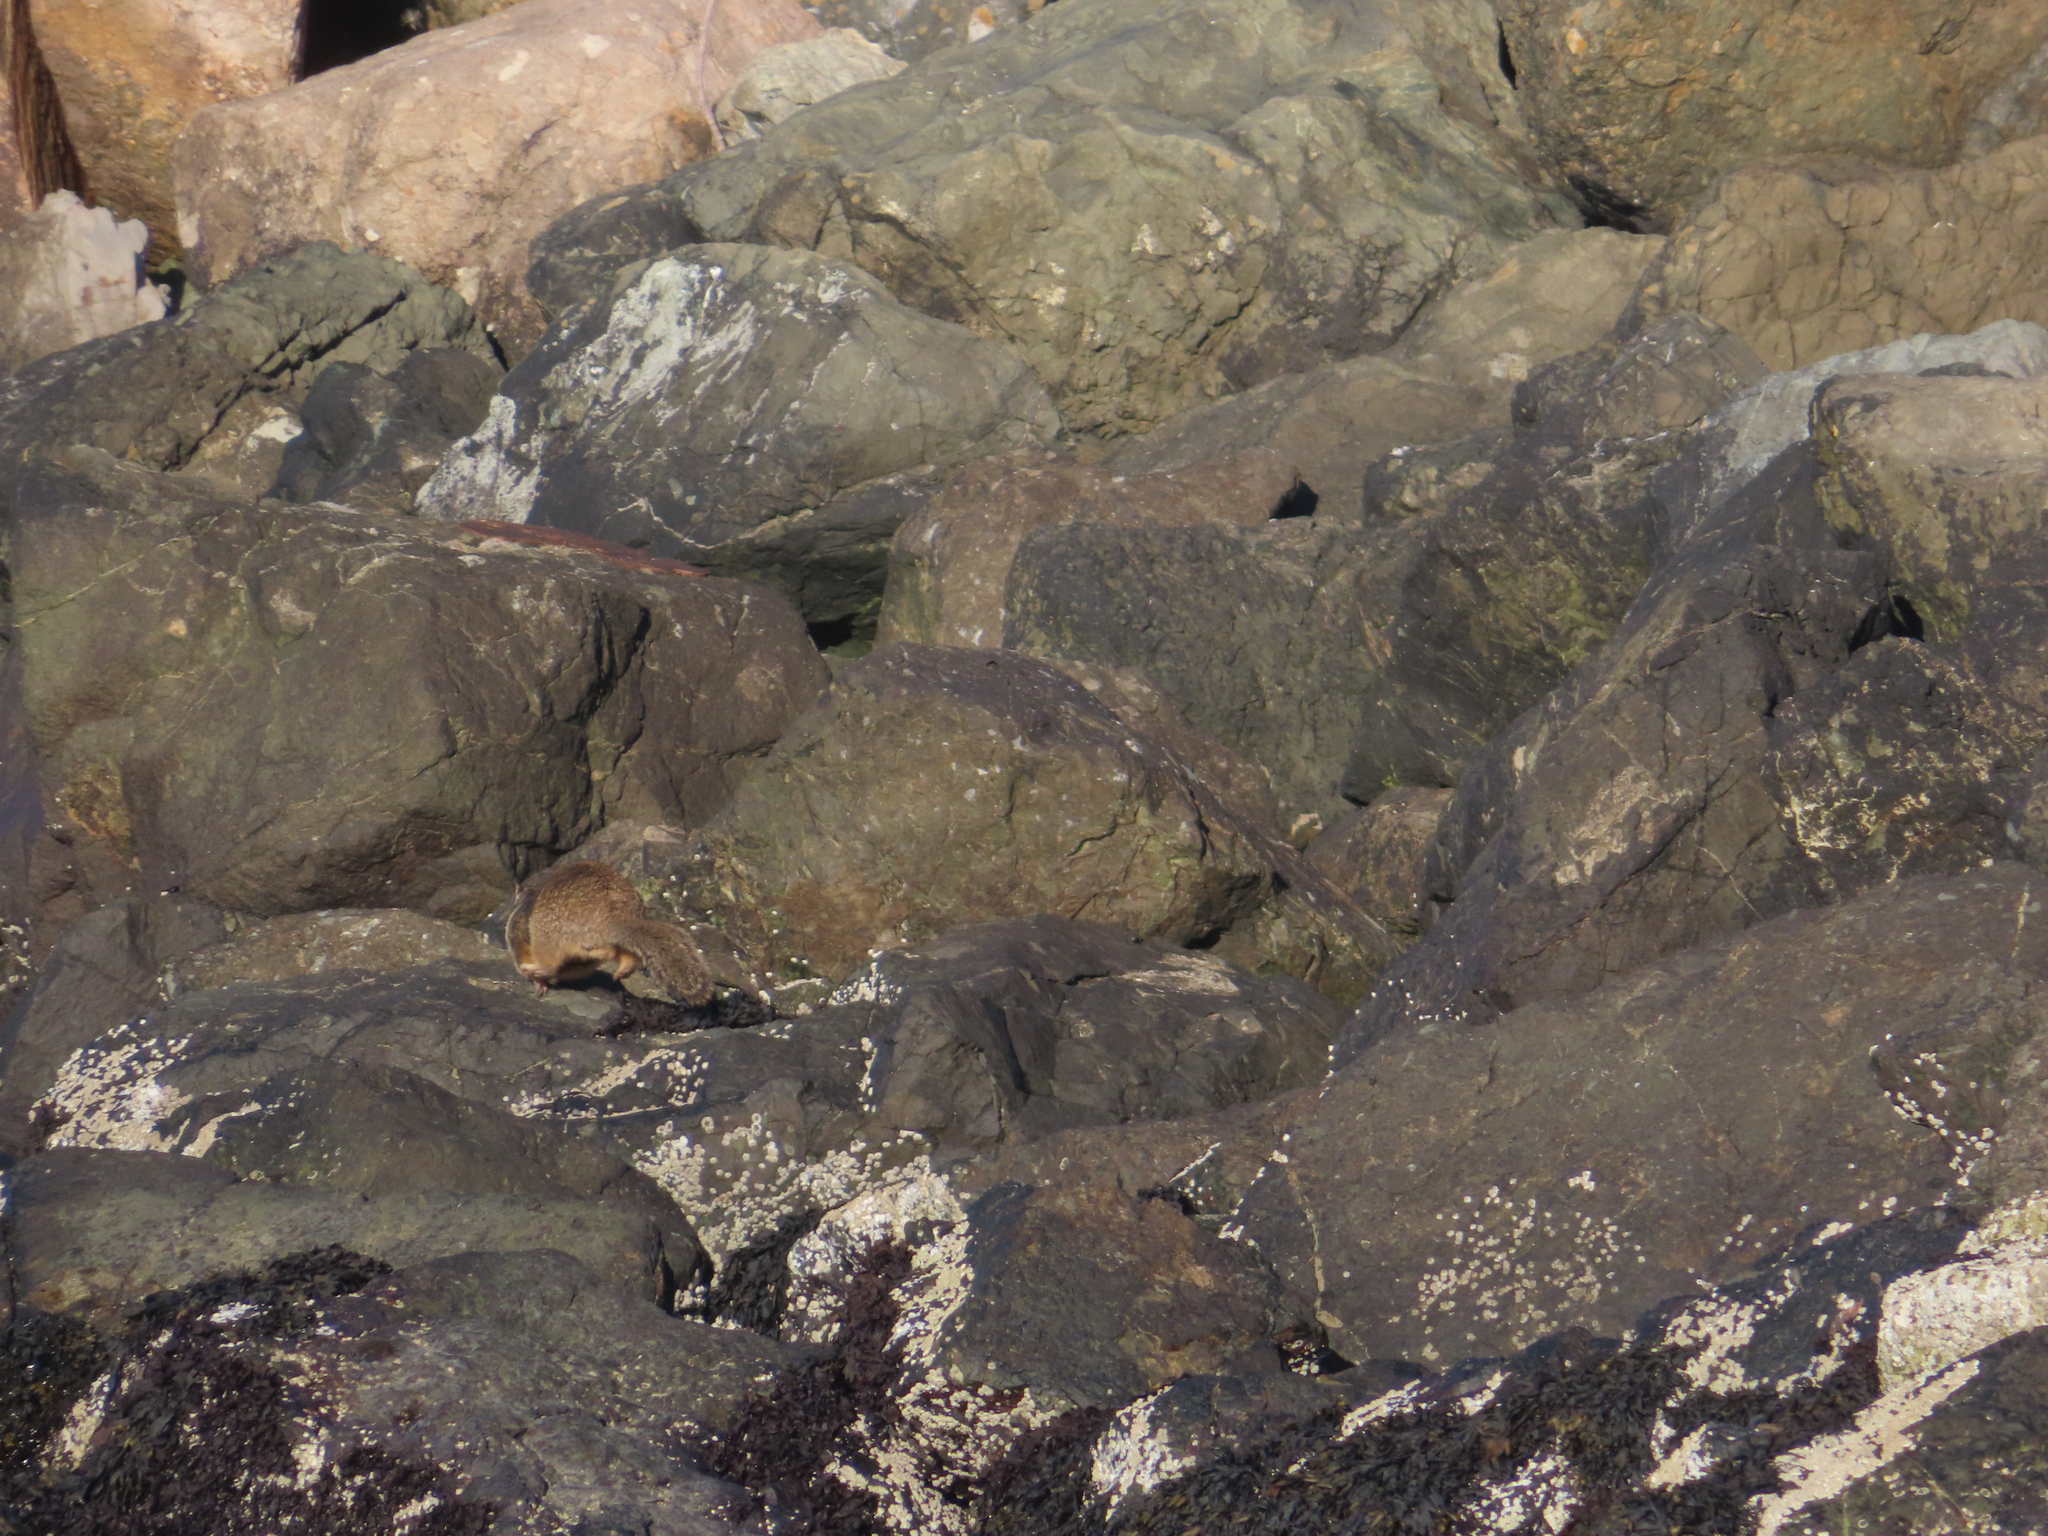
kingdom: Animalia
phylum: Chordata
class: Mammalia
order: Rodentia
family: Sciuridae
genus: Otospermophilus
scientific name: Otospermophilus beecheyi
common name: California ground squirrel
